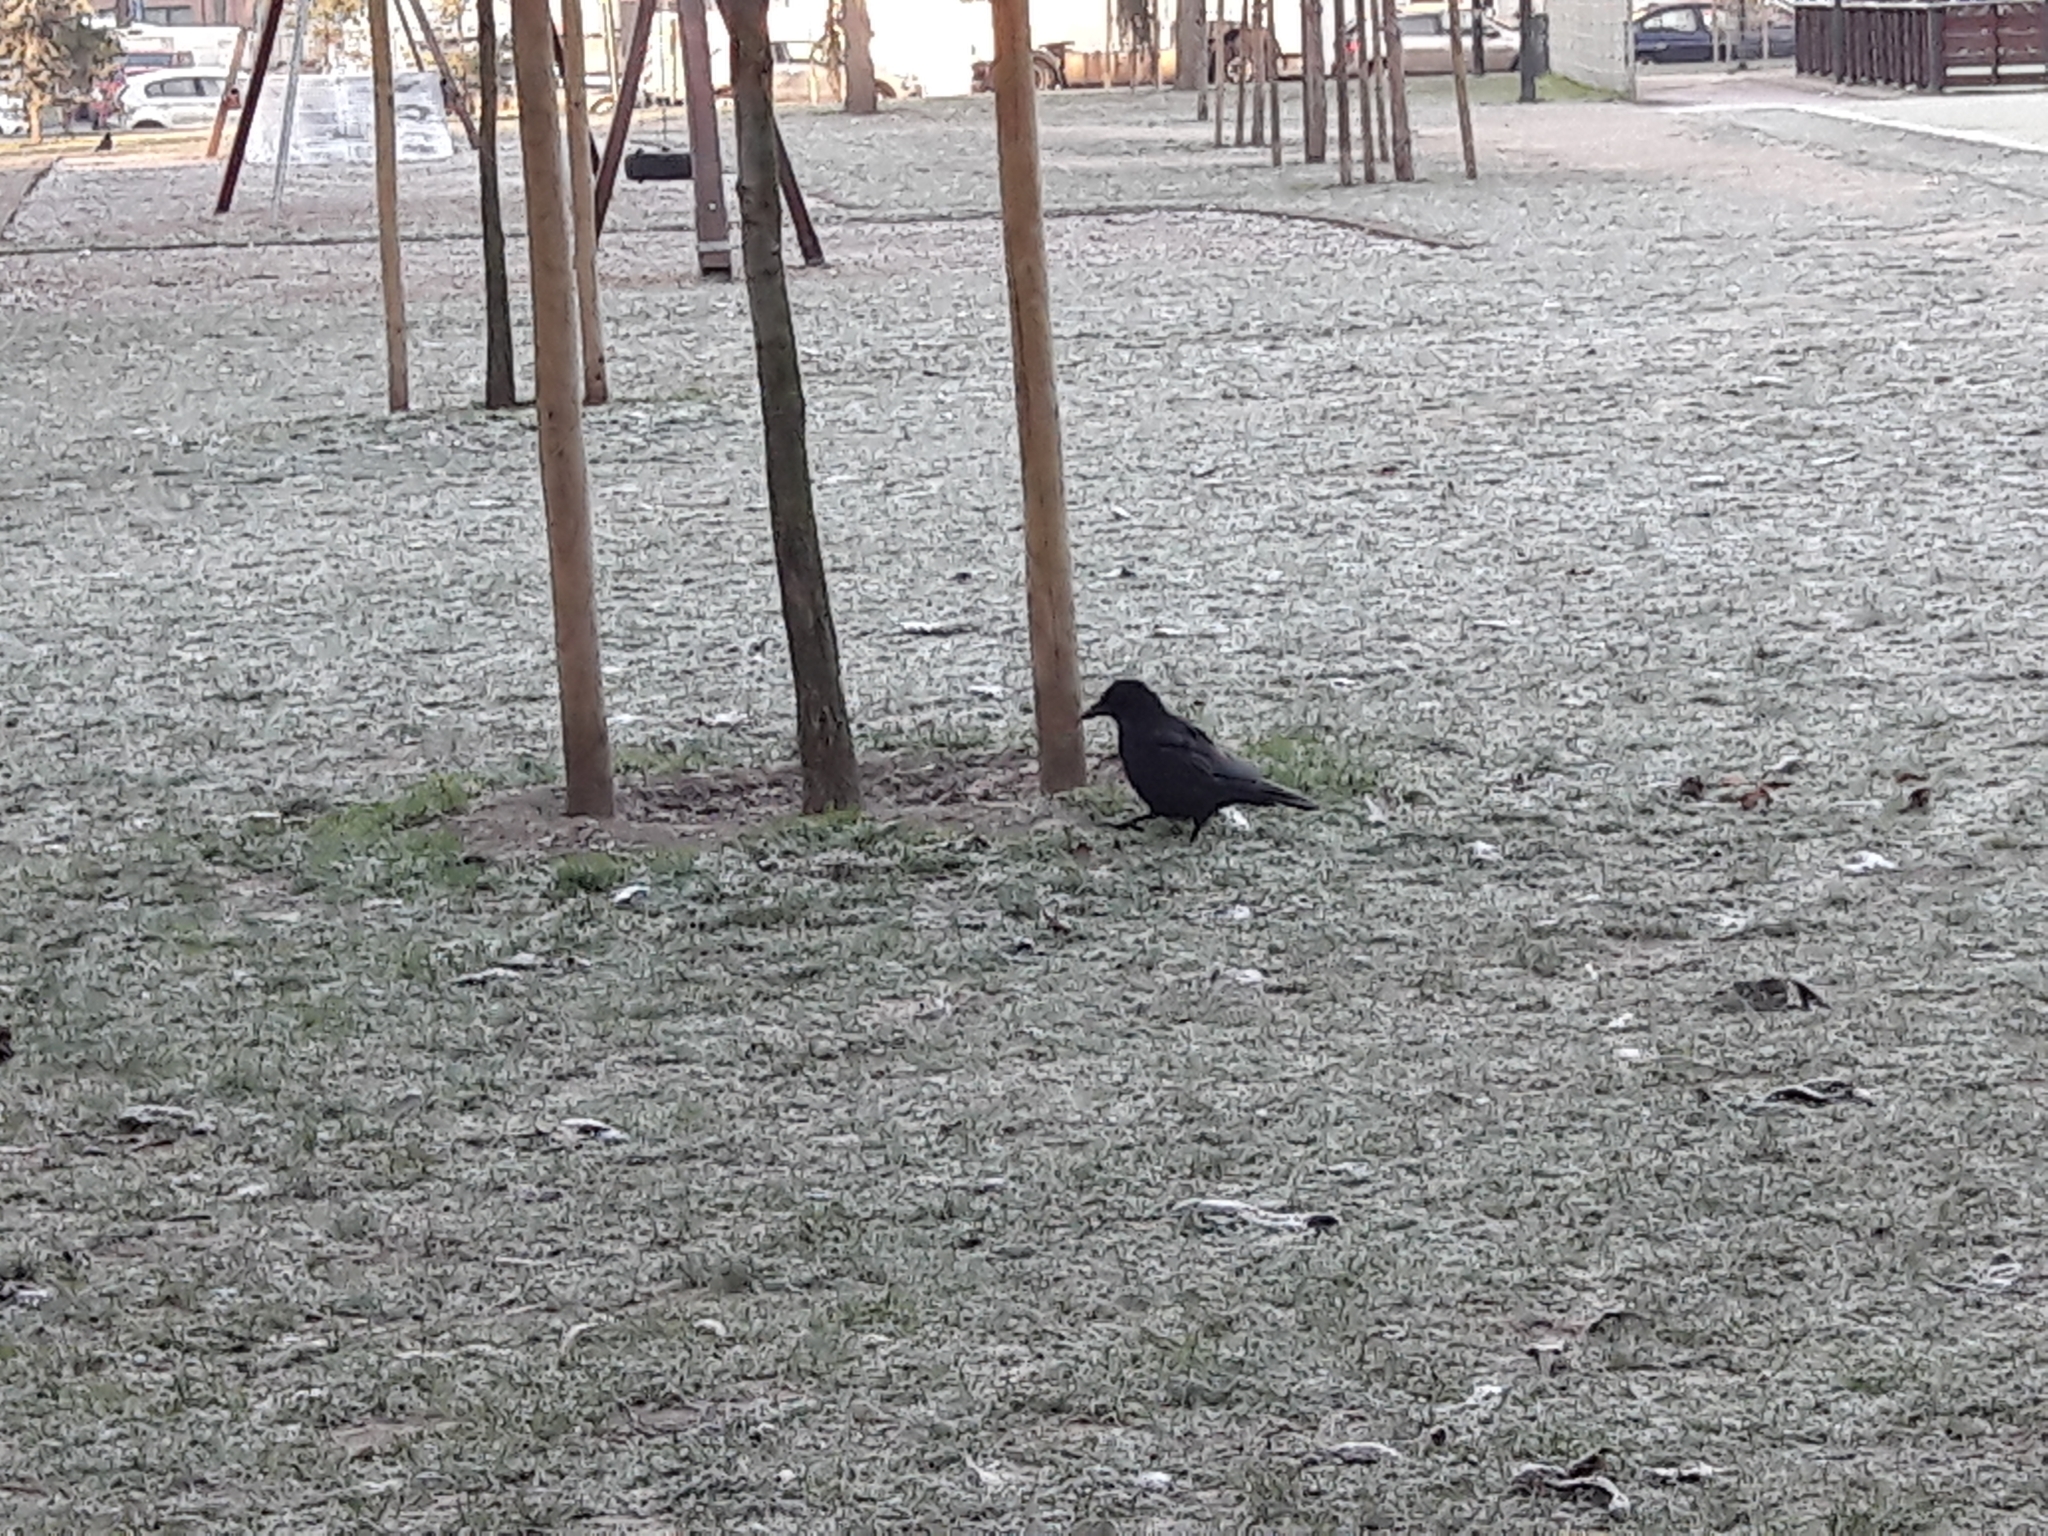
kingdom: Animalia
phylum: Chordata
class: Aves
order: Passeriformes
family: Corvidae
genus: Corvus
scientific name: Corvus corone
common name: Carrion crow
